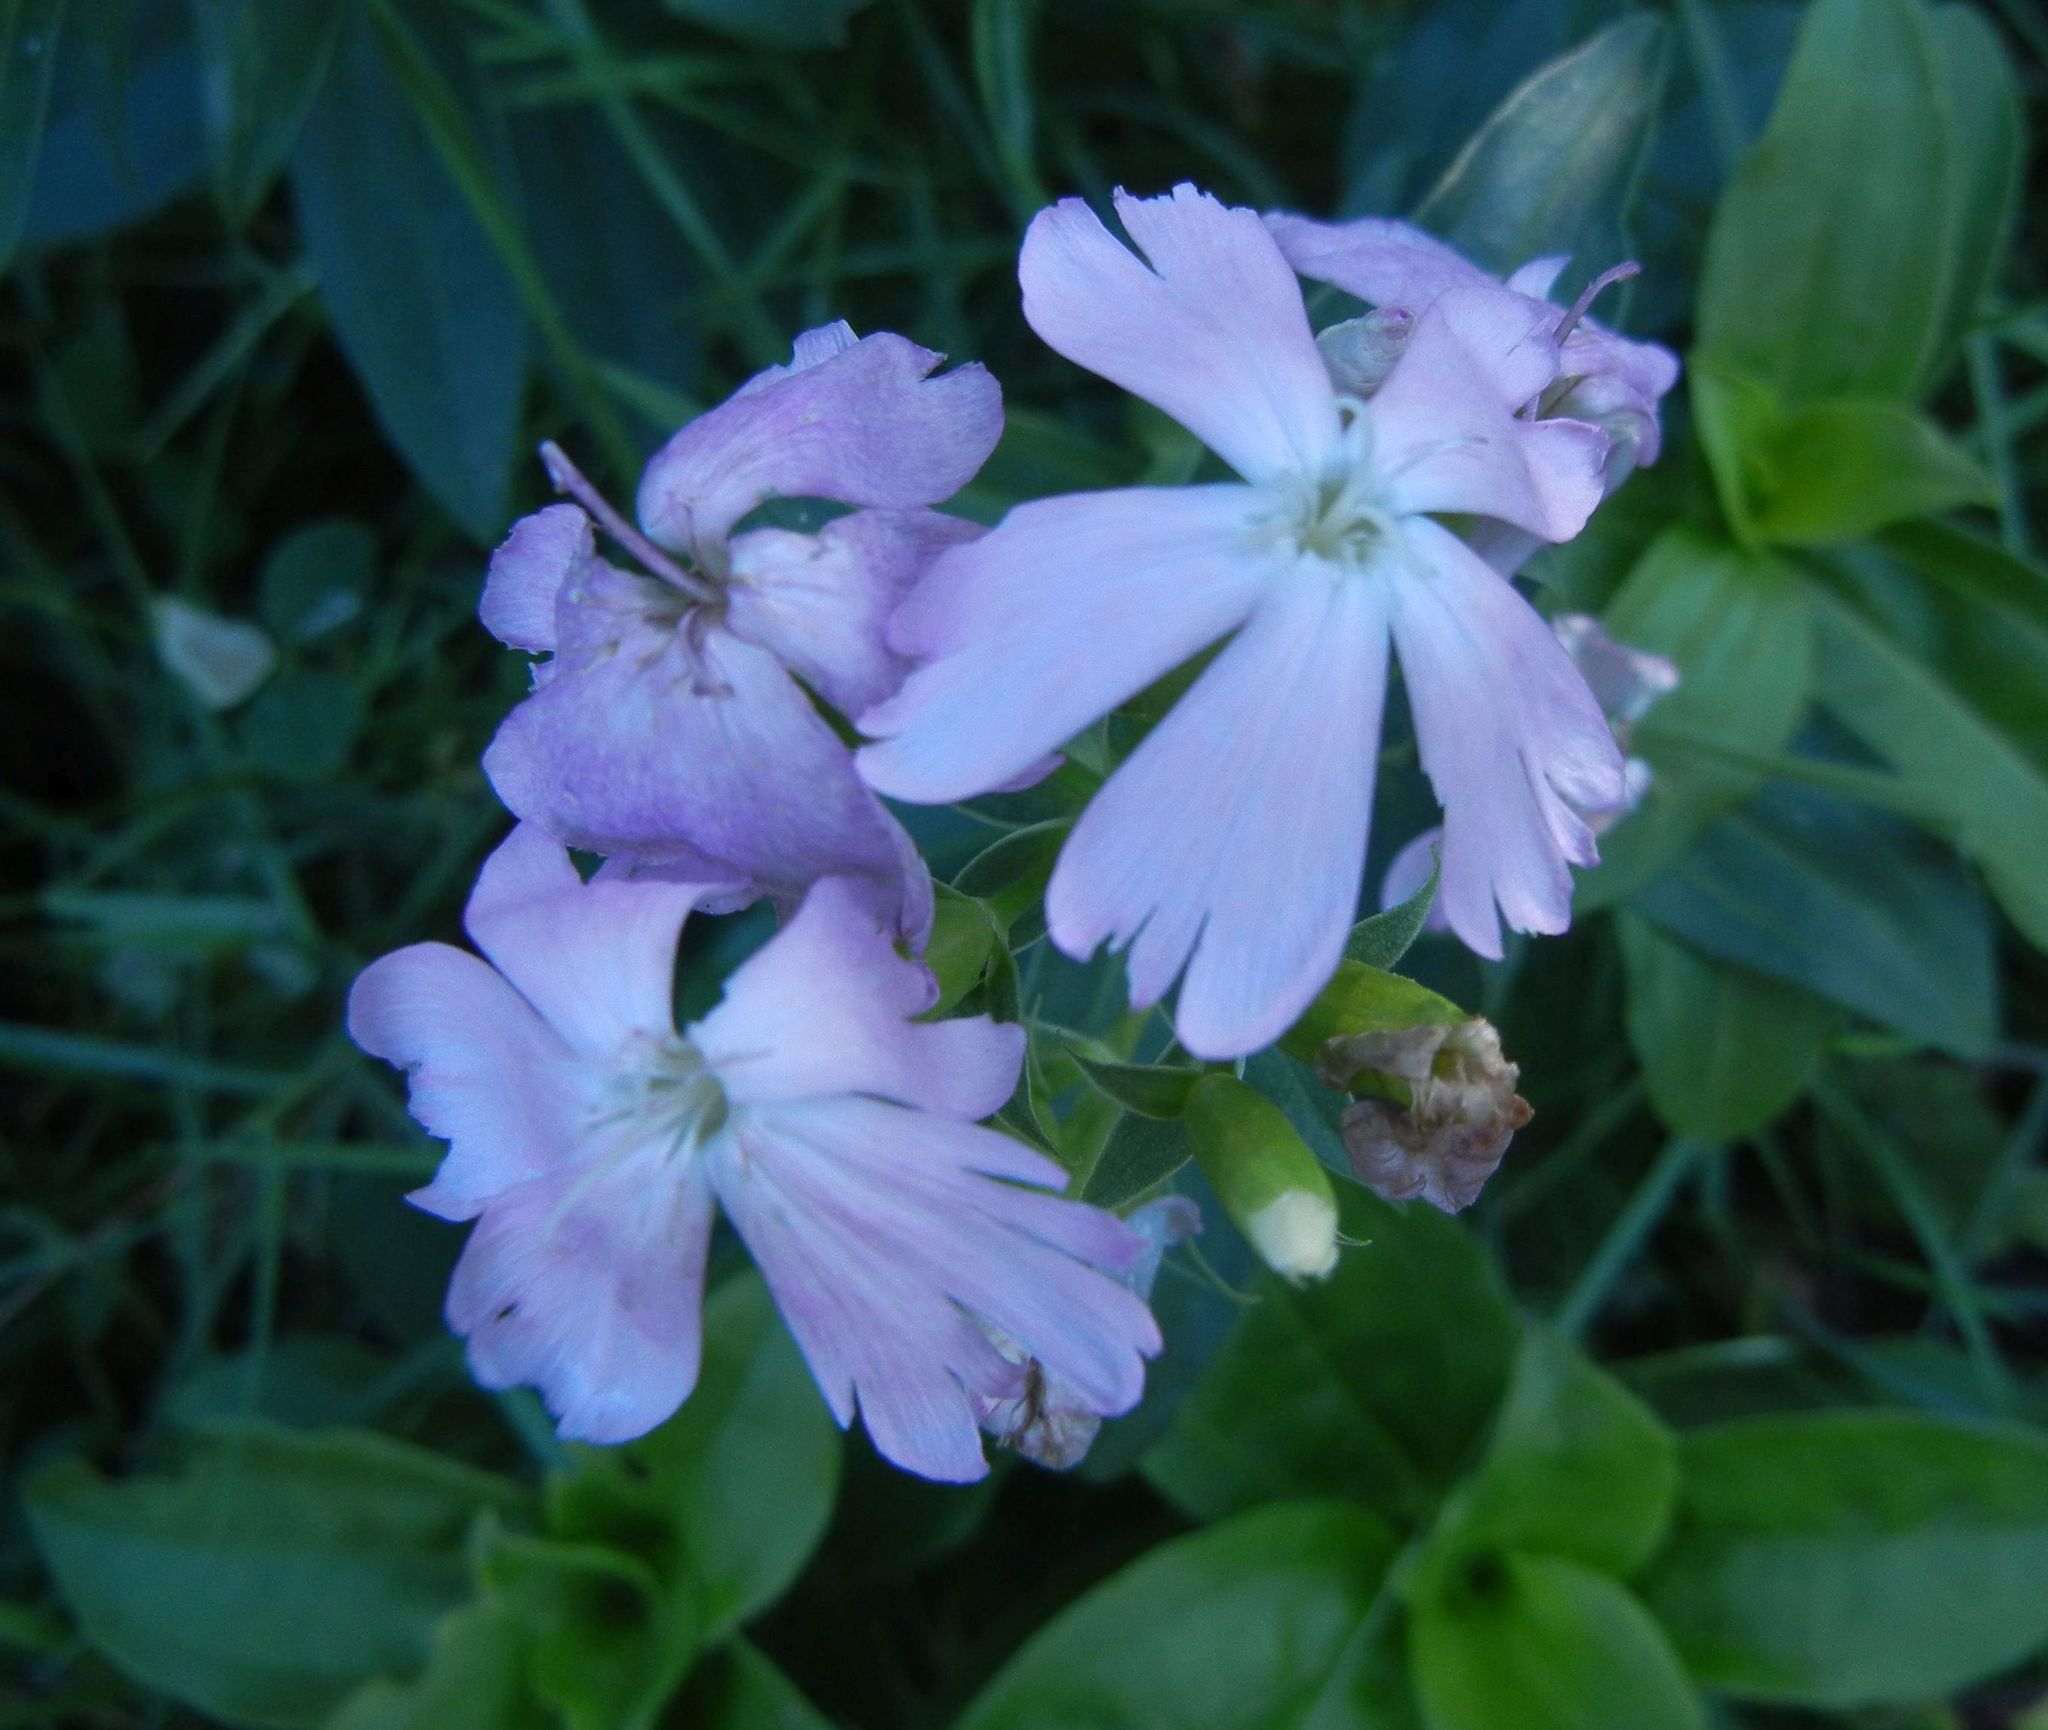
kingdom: Plantae
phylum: Tracheophyta
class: Magnoliopsida
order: Caryophyllales
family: Caryophyllaceae
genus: Saponaria
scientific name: Saponaria officinalis
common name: Soapwort
